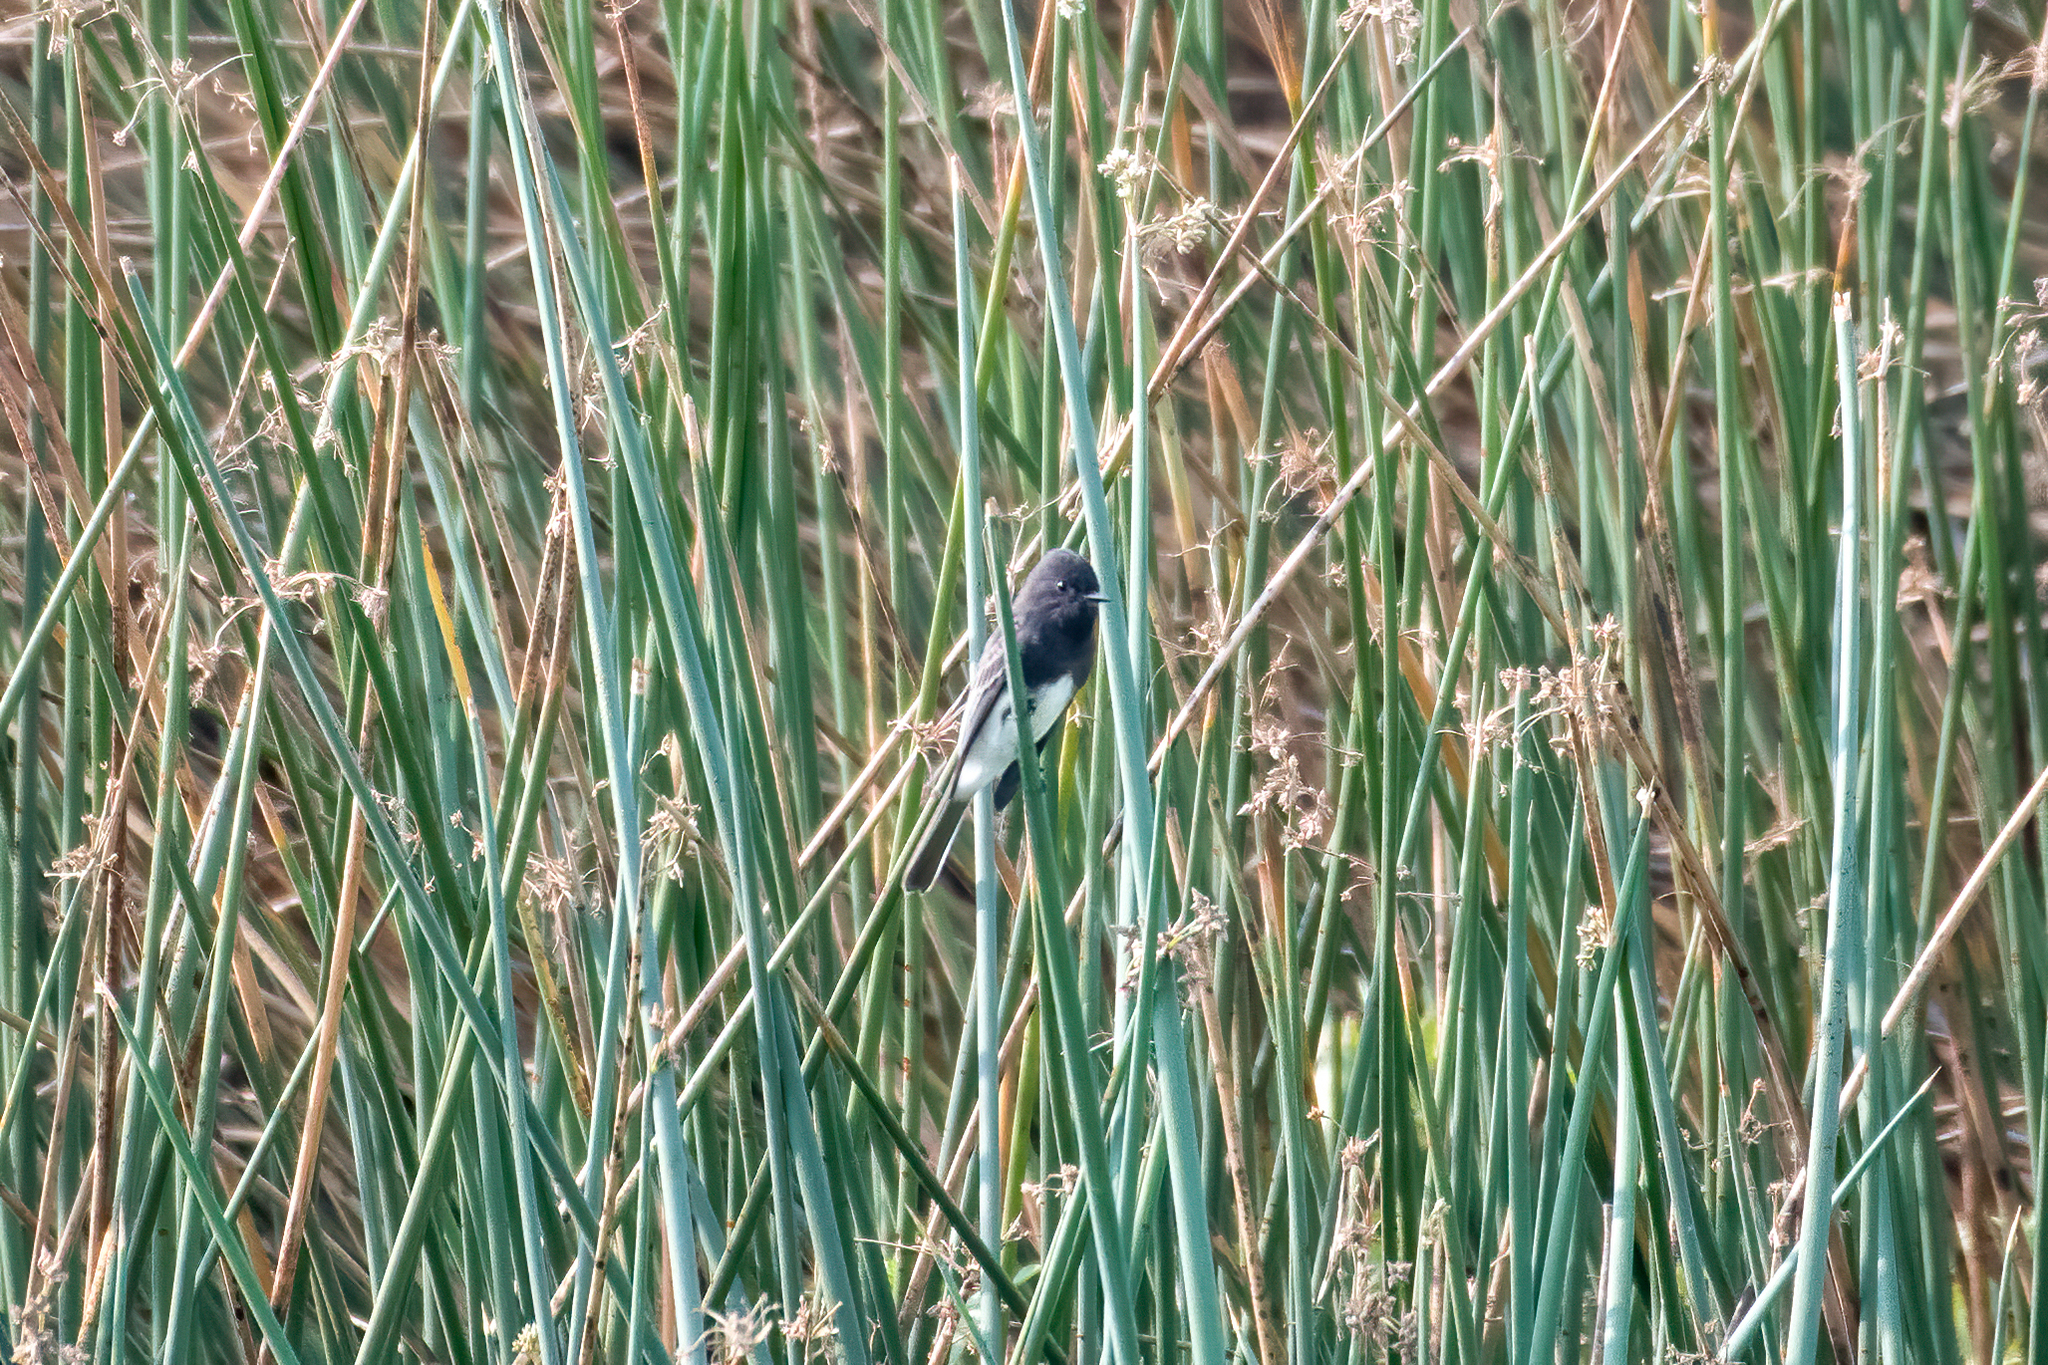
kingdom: Animalia
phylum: Chordata
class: Aves
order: Passeriformes
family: Tyrannidae
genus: Sayornis
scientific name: Sayornis nigricans
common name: Black phoebe
